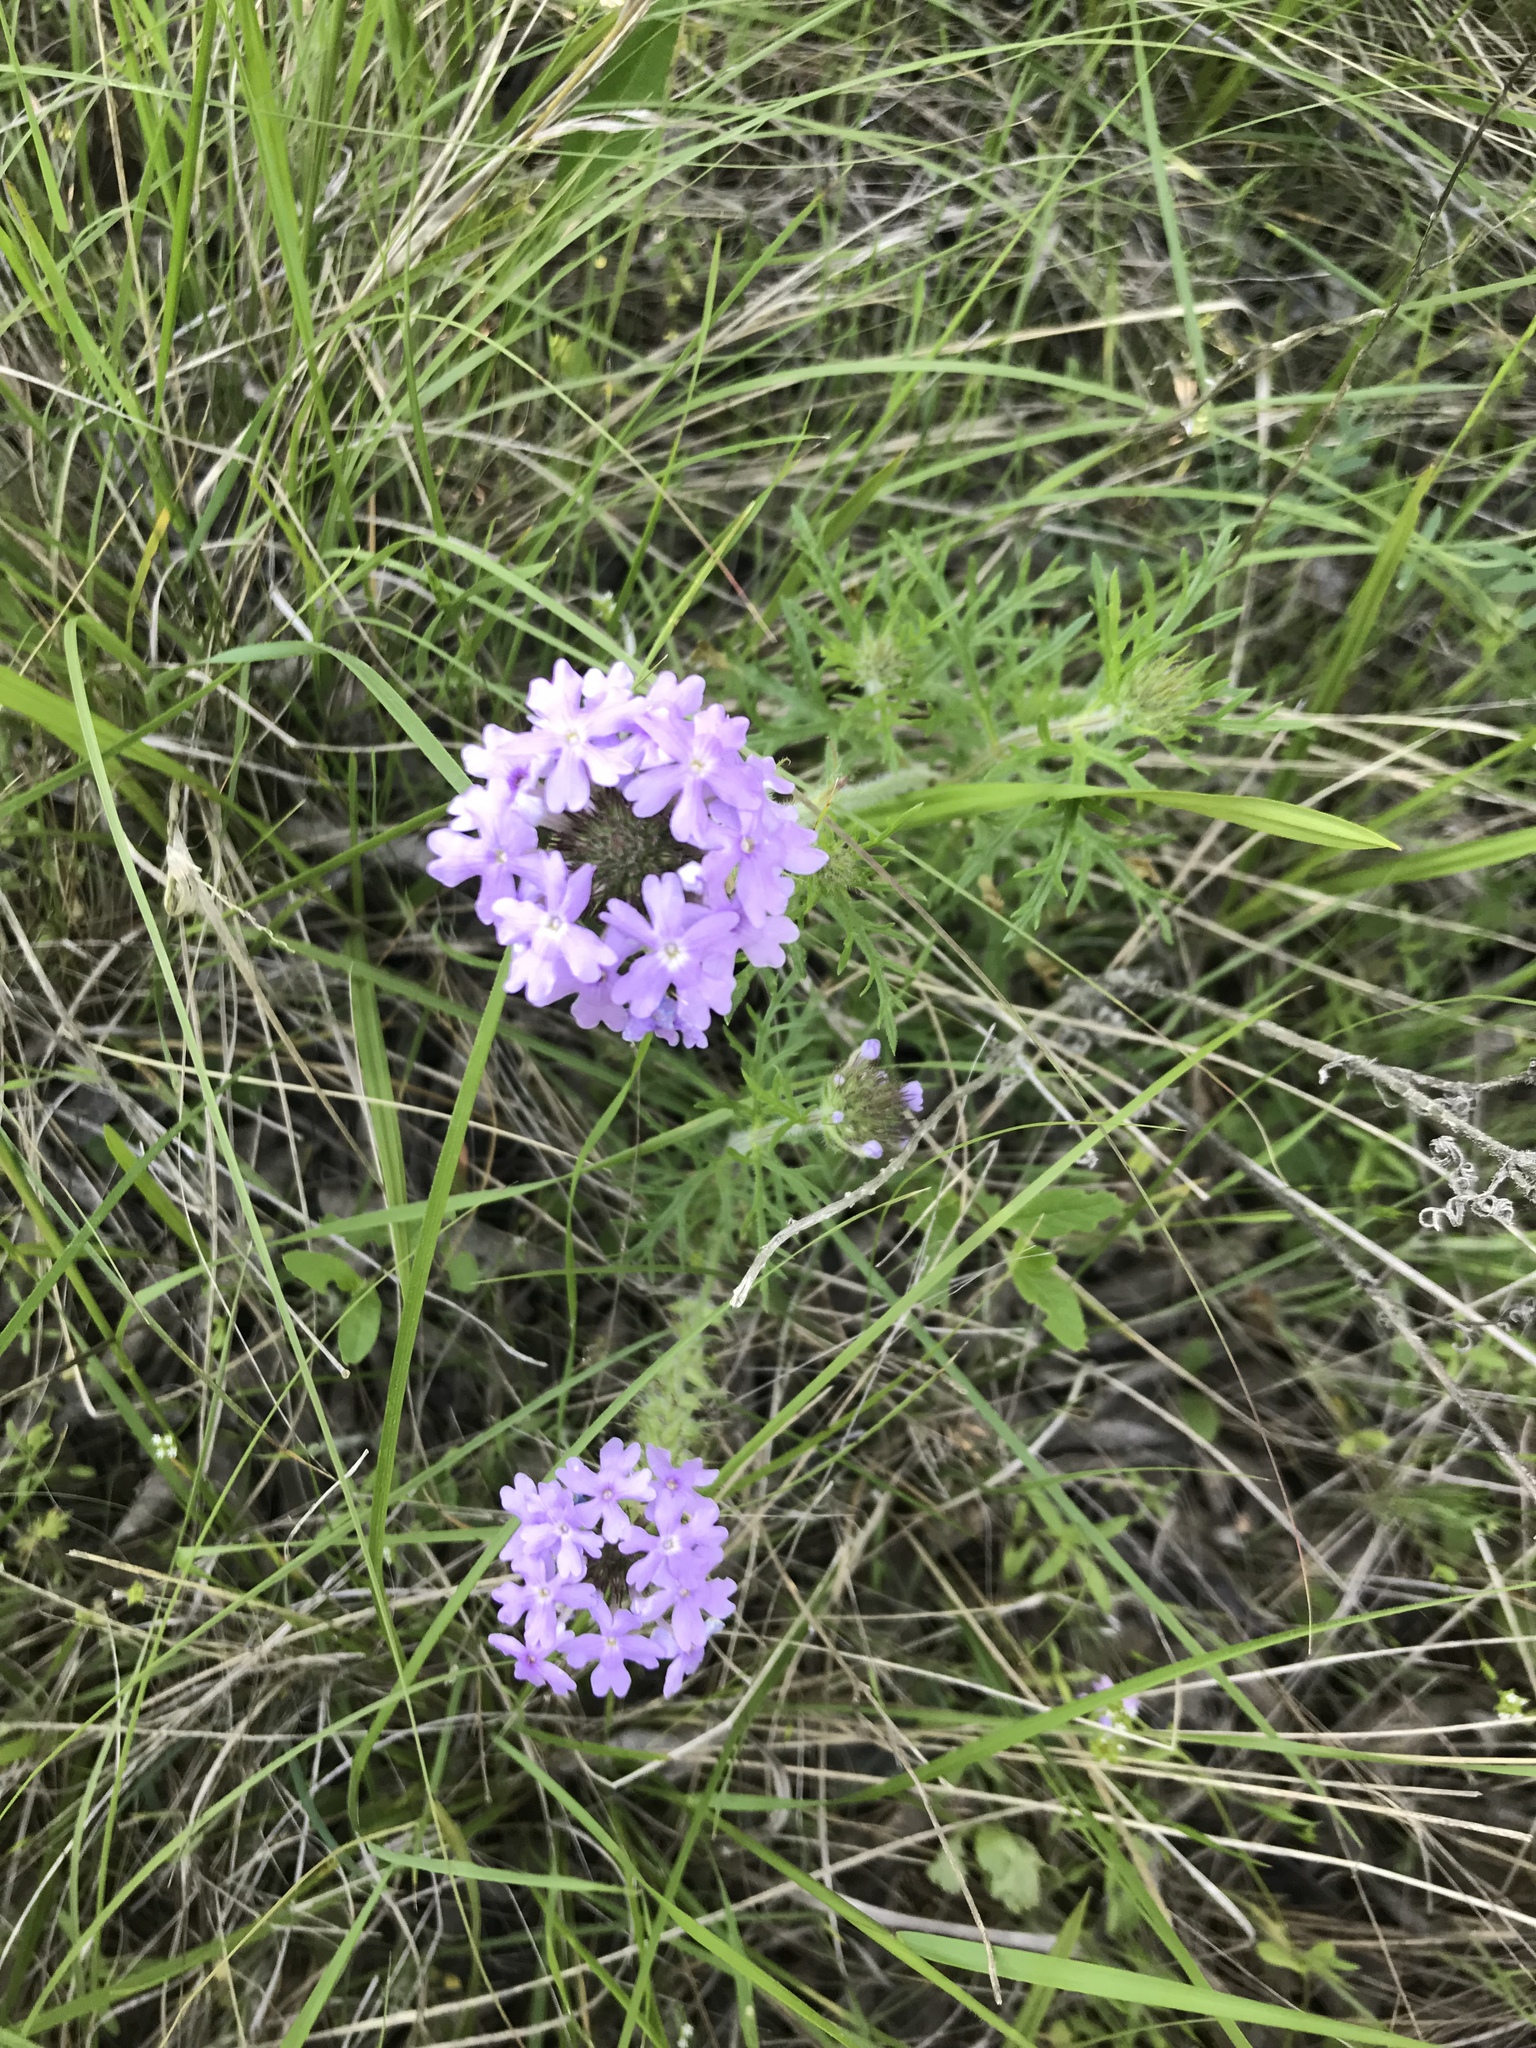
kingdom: Plantae
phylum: Tracheophyta
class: Magnoliopsida
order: Lamiales
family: Verbenaceae
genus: Verbena
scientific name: Verbena bipinnatifida
